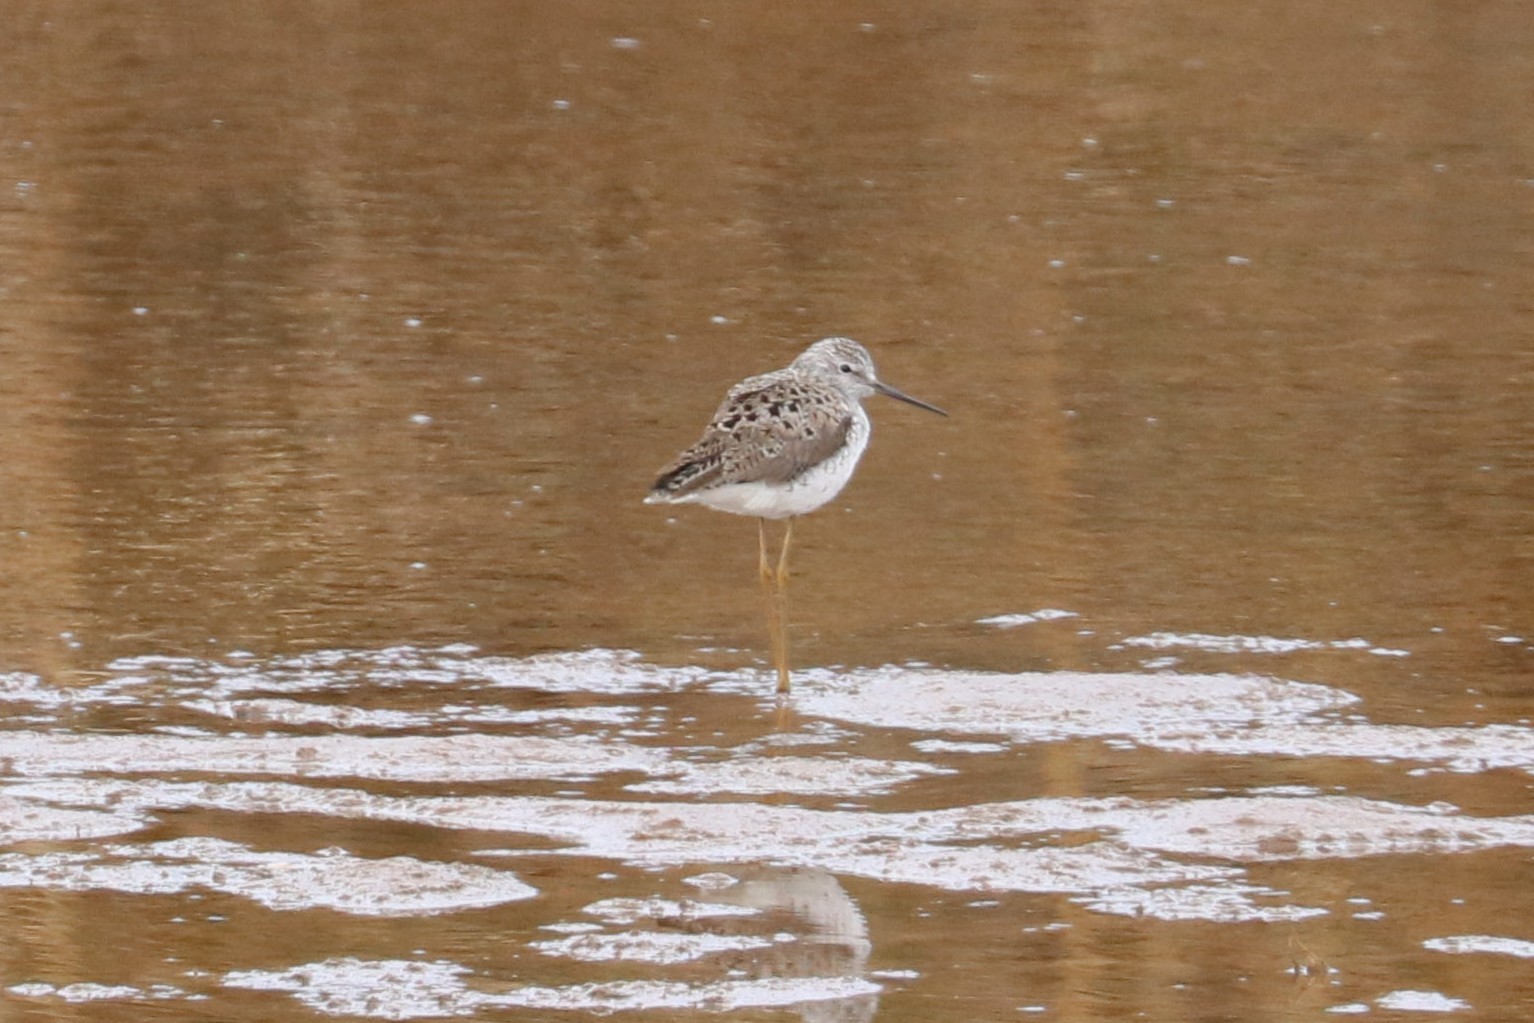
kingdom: Animalia
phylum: Chordata
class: Aves
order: Charadriiformes
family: Scolopacidae
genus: Tringa
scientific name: Tringa stagnatilis
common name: Marsh sandpiper
